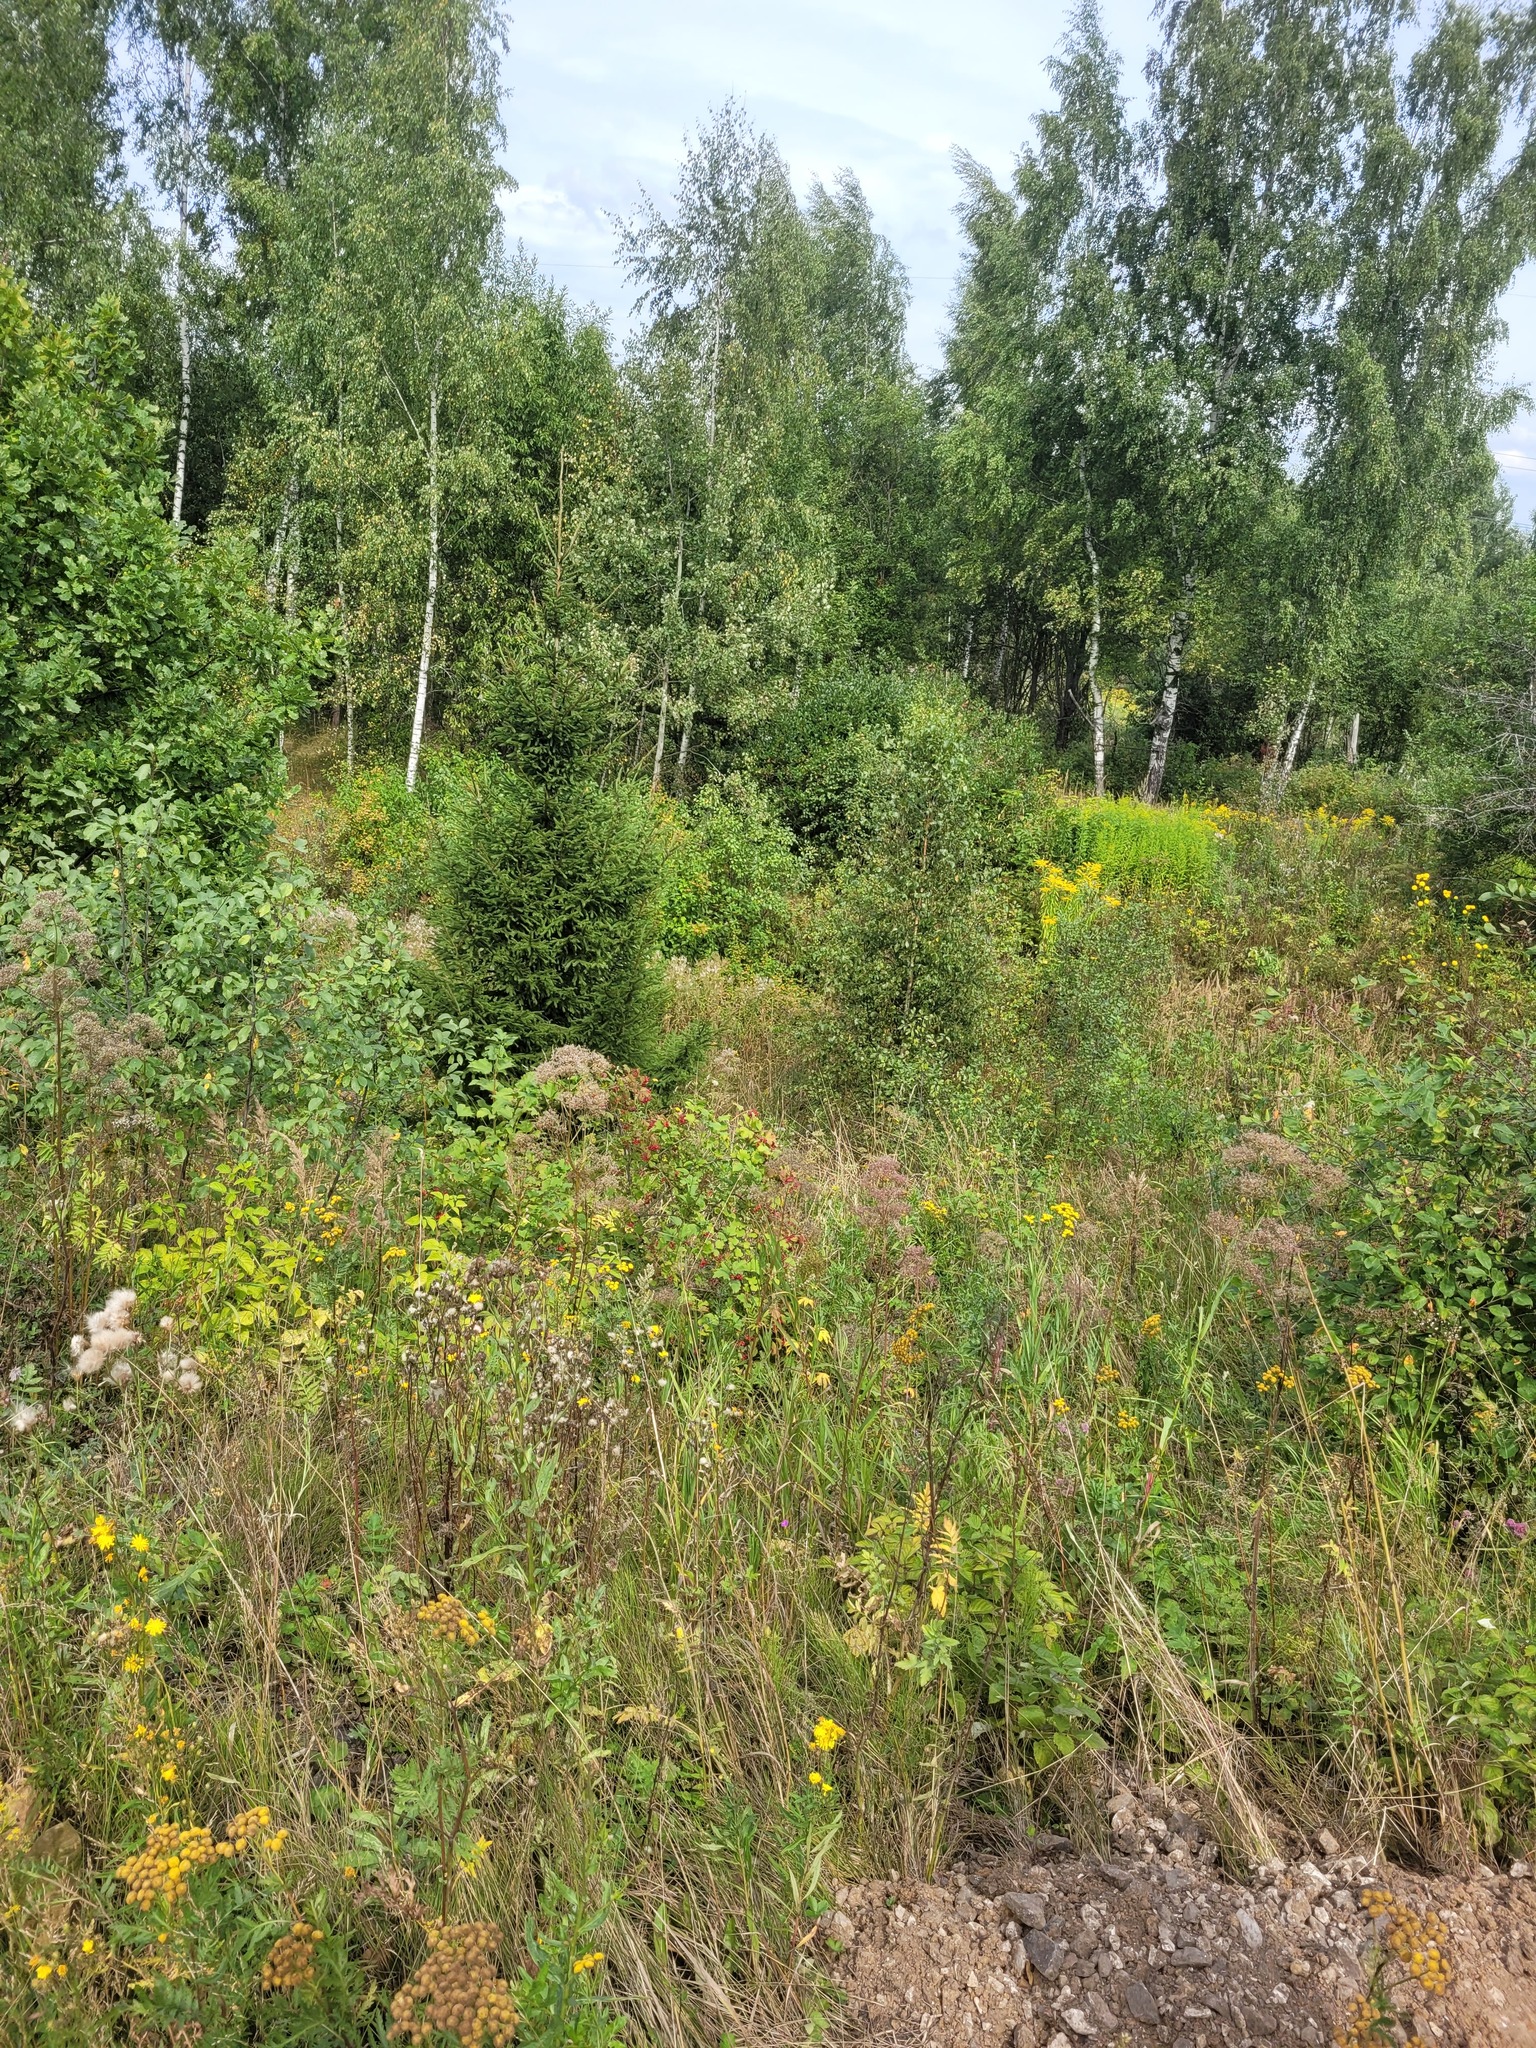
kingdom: Plantae
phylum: Tracheophyta
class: Magnoliopsida
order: Dipsacales
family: Viburnaceae
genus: Viburnum
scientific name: Viburnum opulus
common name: Guelder-rose
